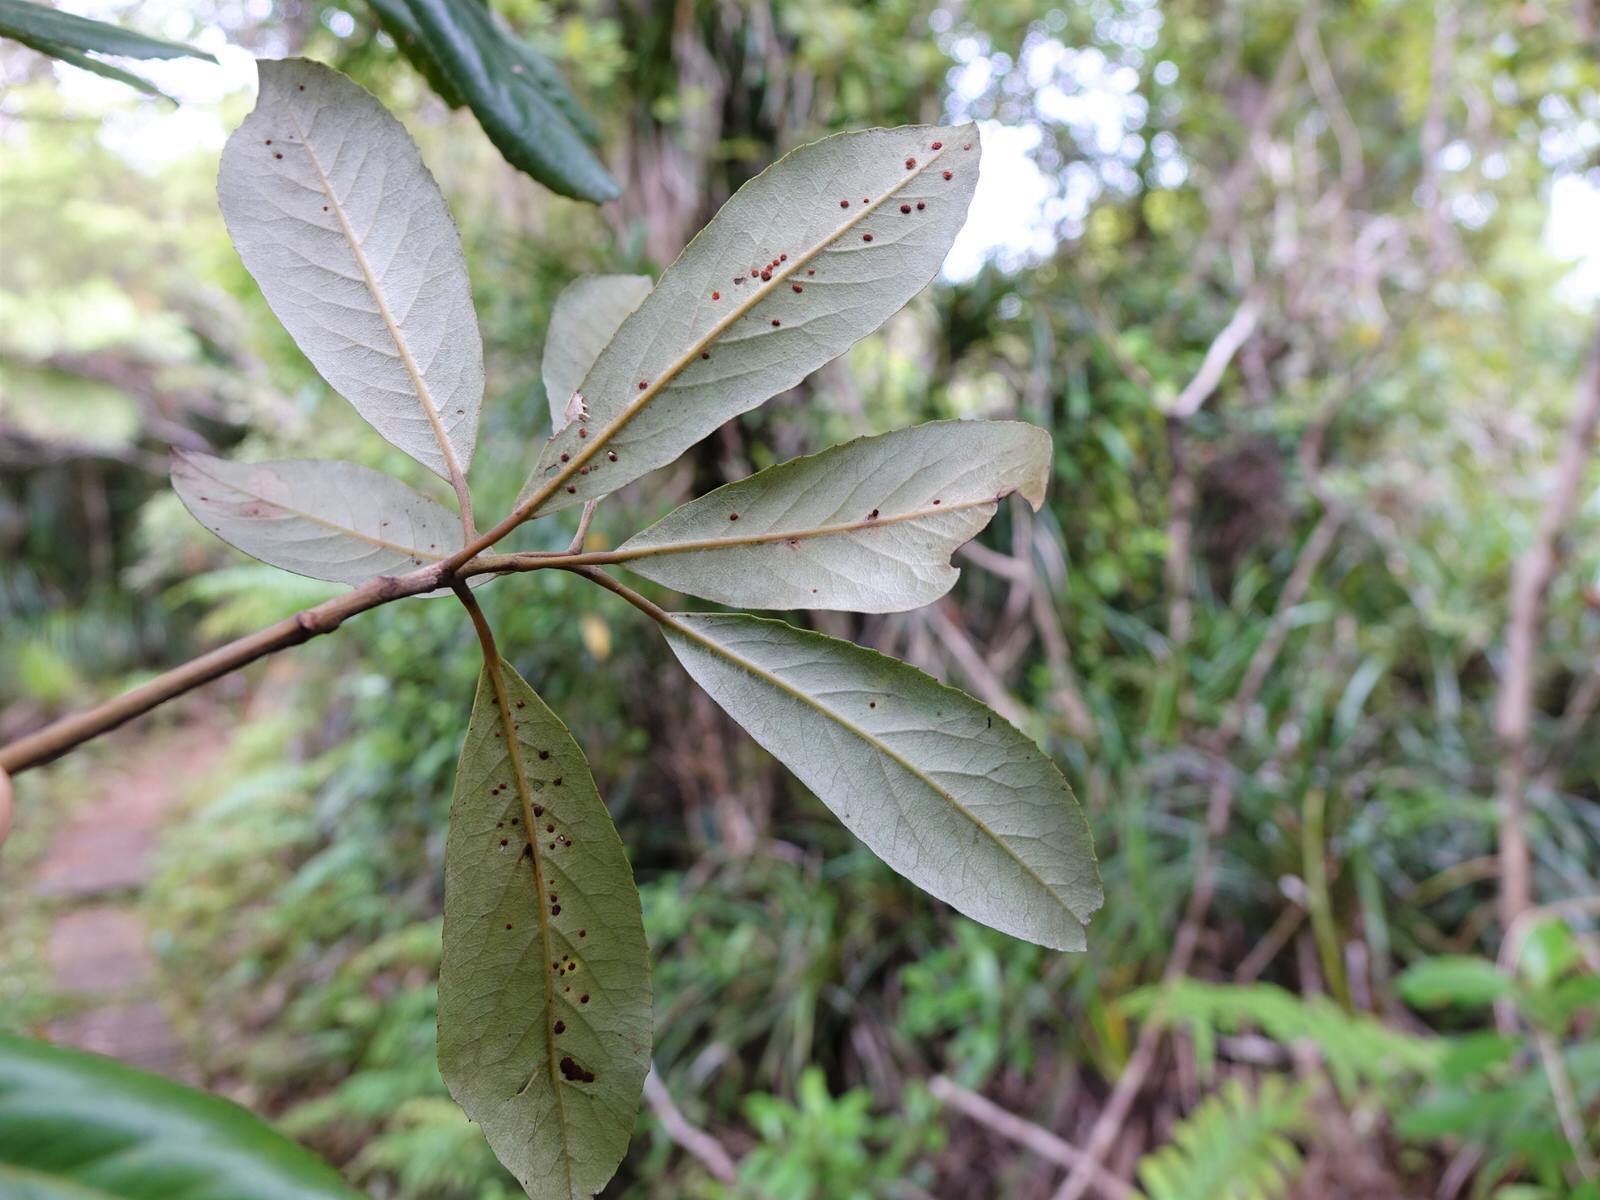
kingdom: Plantae
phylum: Tracheophyta
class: Magnoliopsida
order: Oxalidales
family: Elaeocarpaceae
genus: Elaeocarpus
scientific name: Elaeocarpus dentatus
